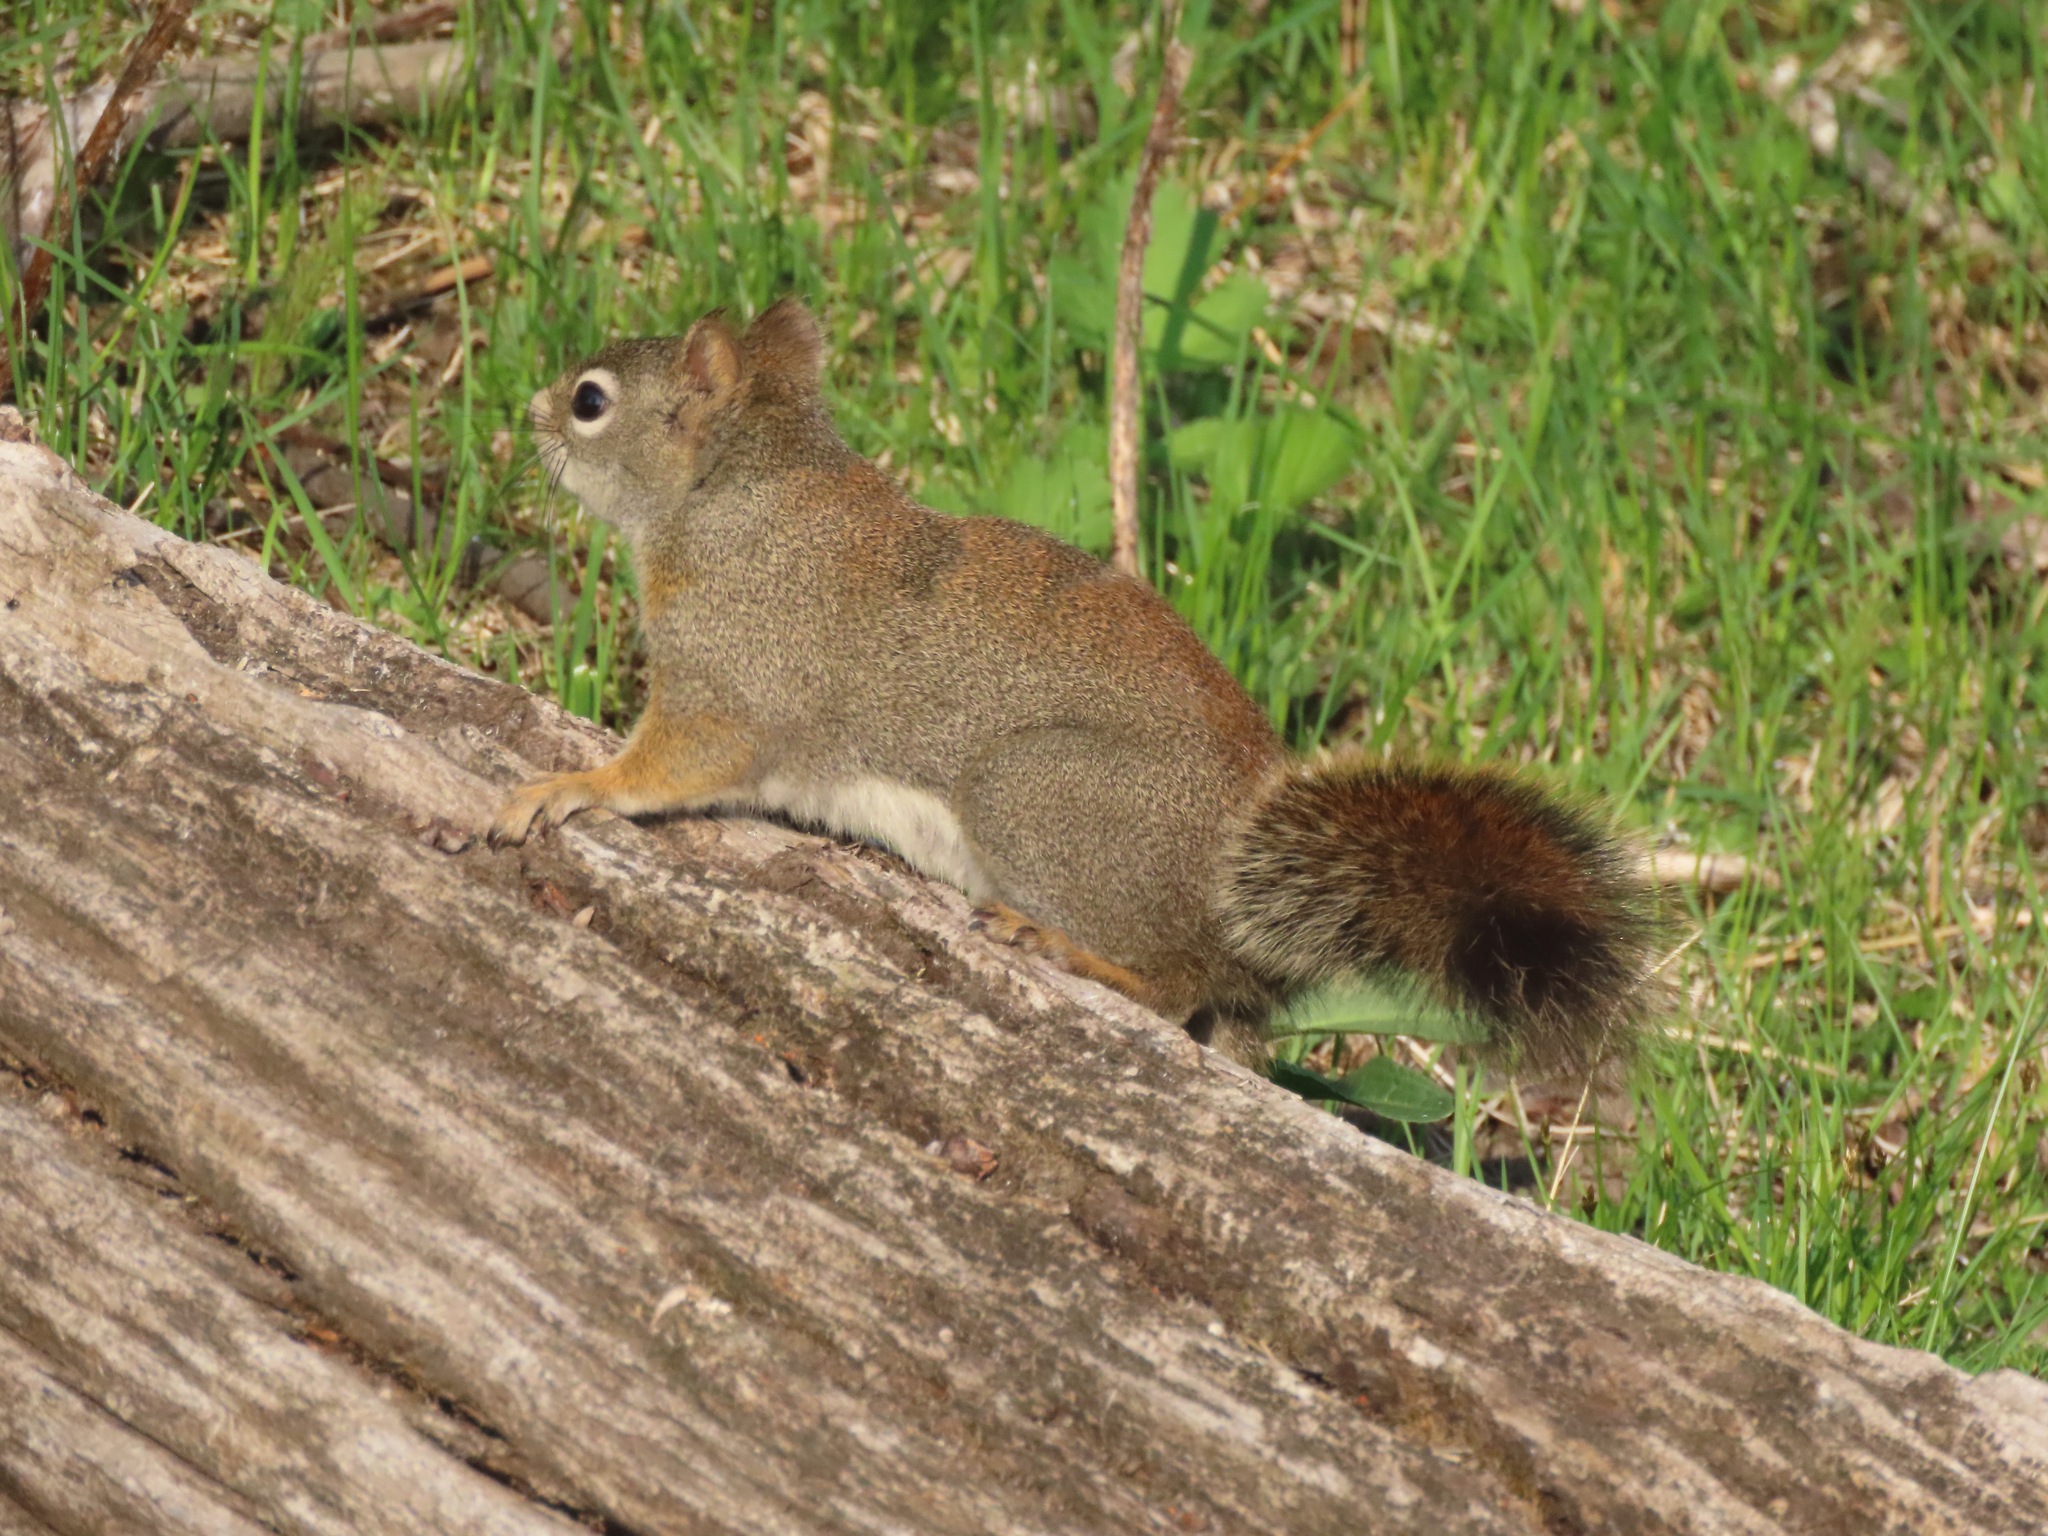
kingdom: Animalia
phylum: Chordata
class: Mammalia
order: Rodentia
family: Sciuridae
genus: Tamiasciurus
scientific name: Tamiasciurus hudsonicus
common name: Red squirrel
